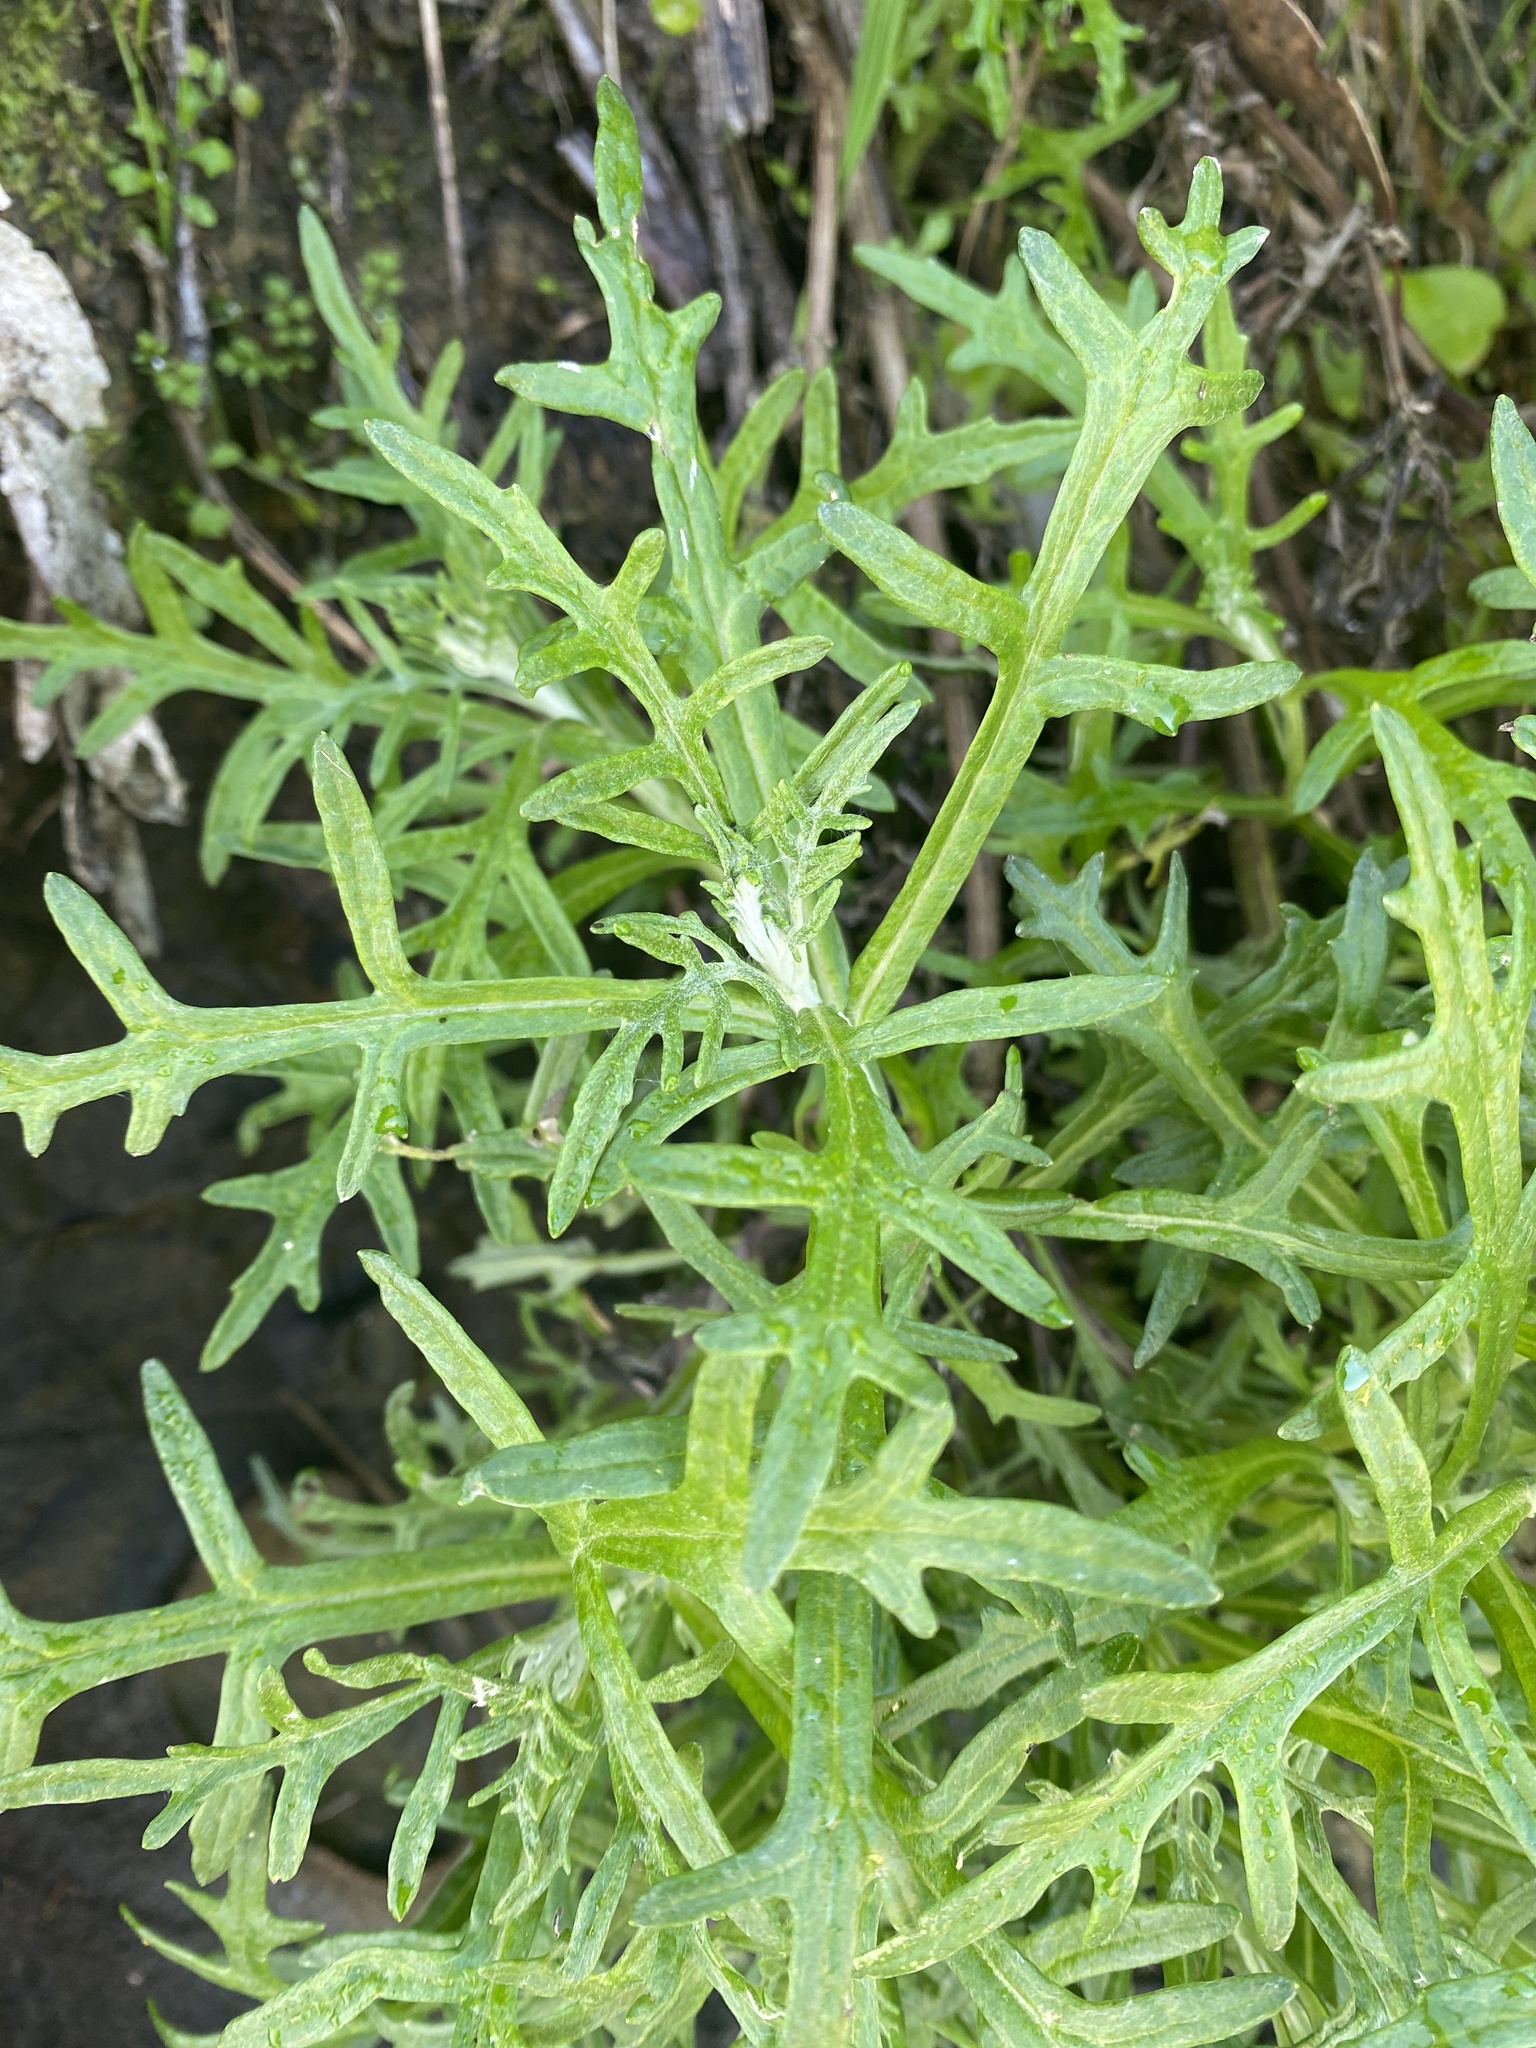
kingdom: Plantae
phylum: Tracheophyta
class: Magnoliopsida
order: Asterales
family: Asteraceae
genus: Eriophyllum
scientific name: Eriophyllum staechadifolium
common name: Lizardtail
